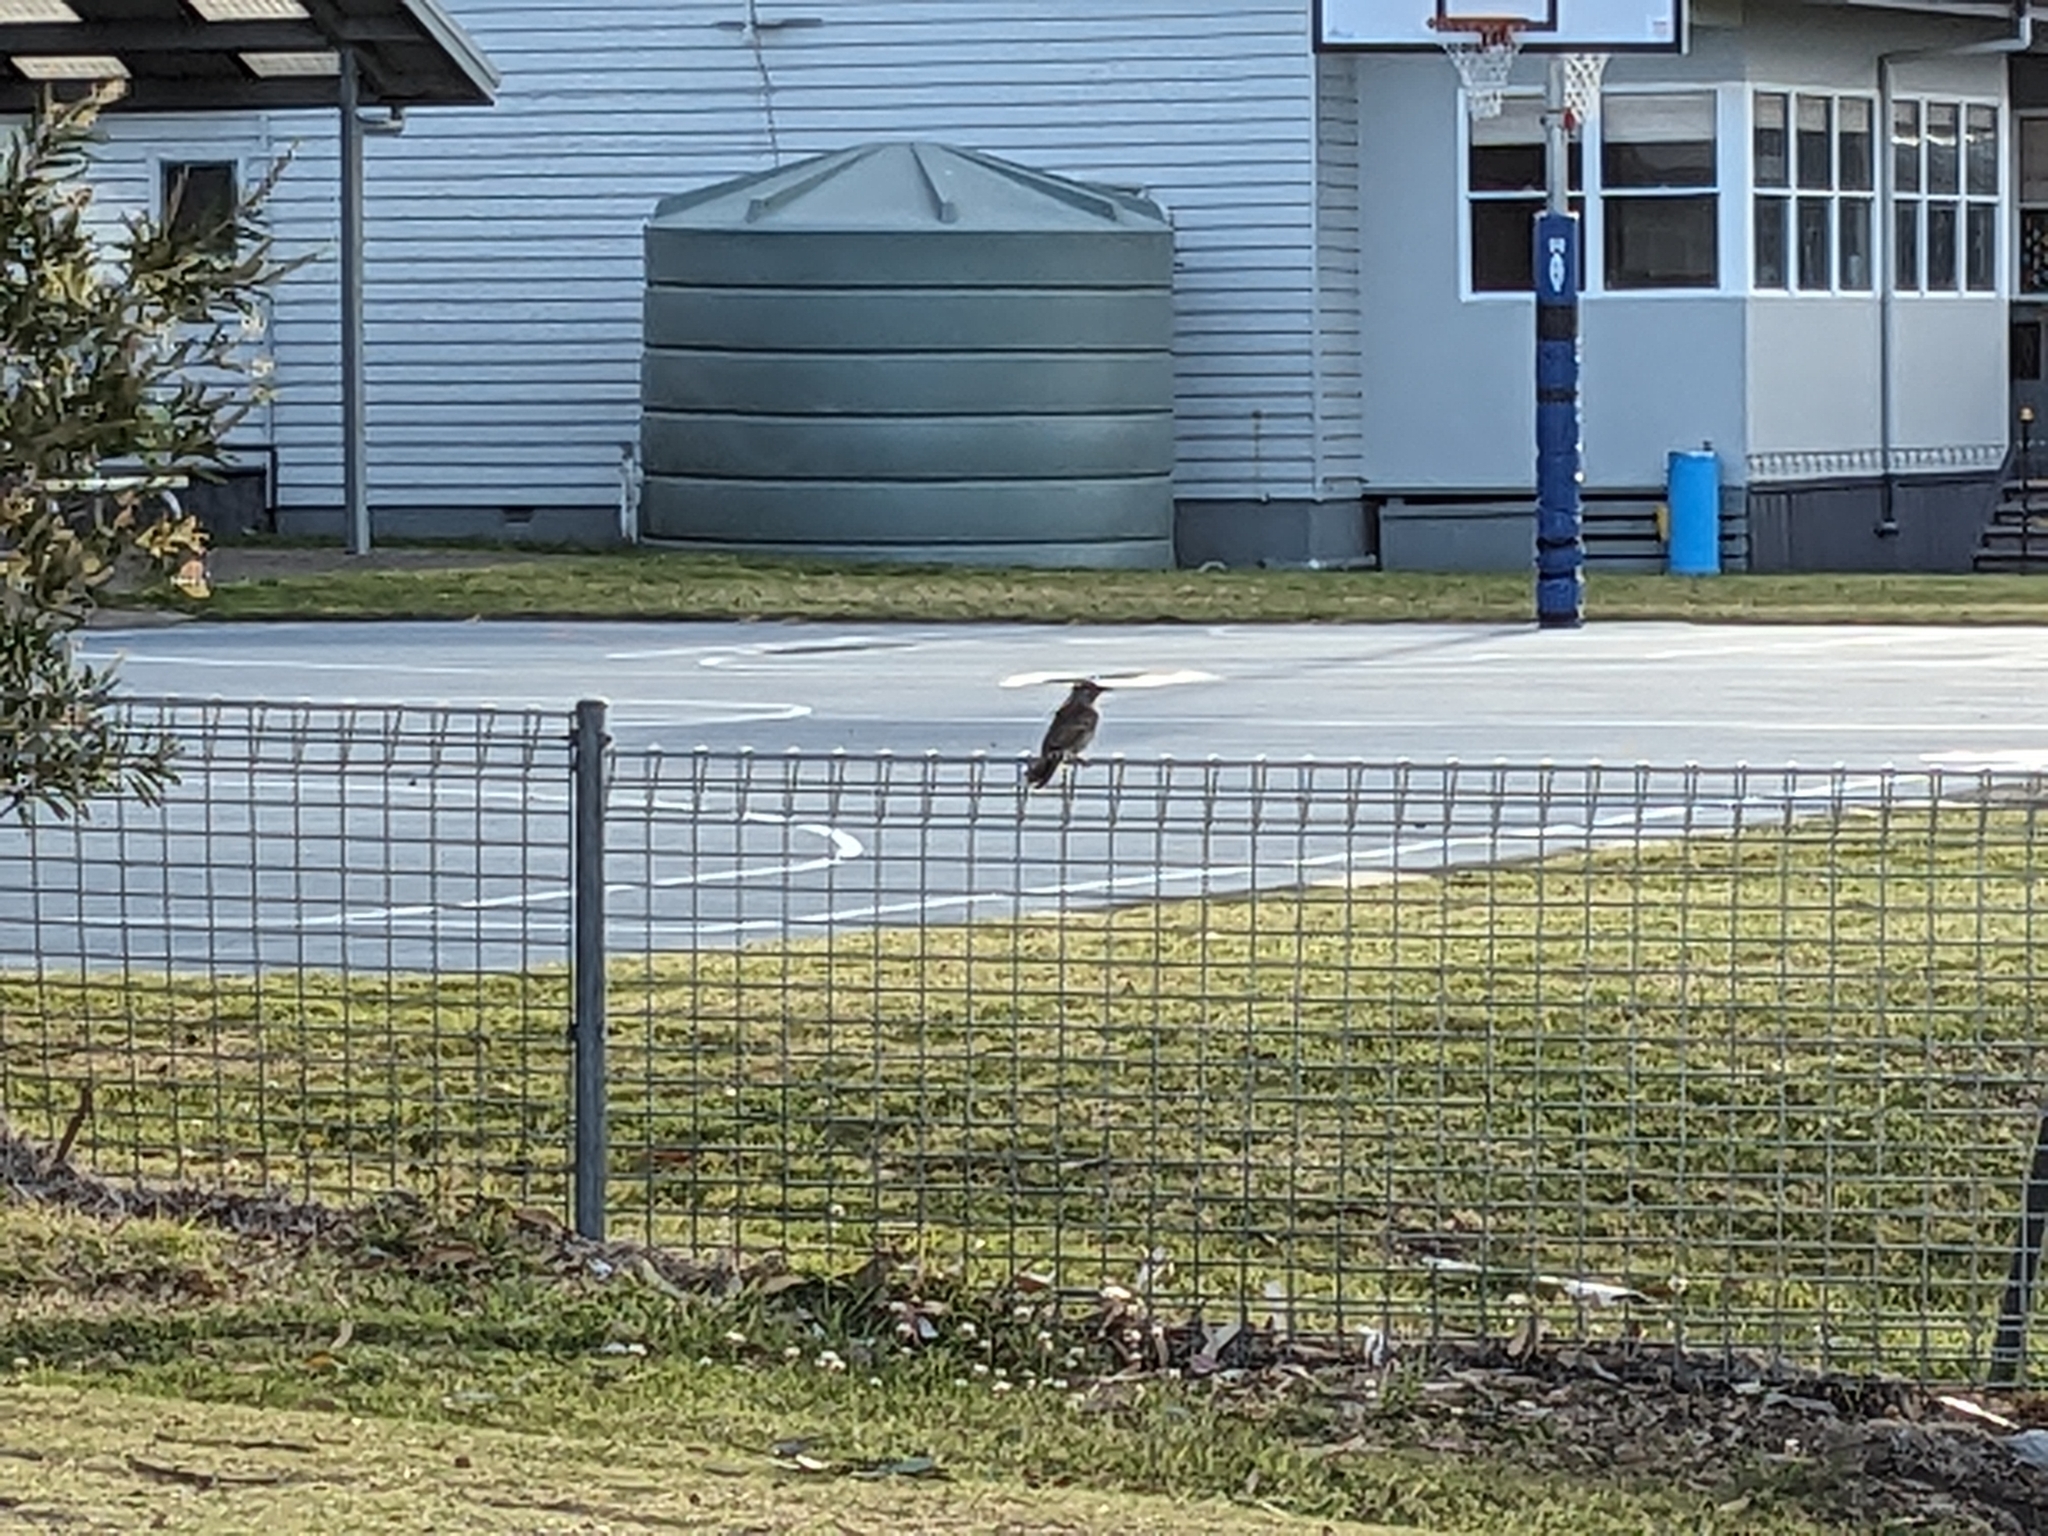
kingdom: Animalia
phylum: Chordata
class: Aves
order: Passeriformes
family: Meliphagidae
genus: Anthochaera
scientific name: Anthochaera chrysoptera
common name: Little wattlebird
